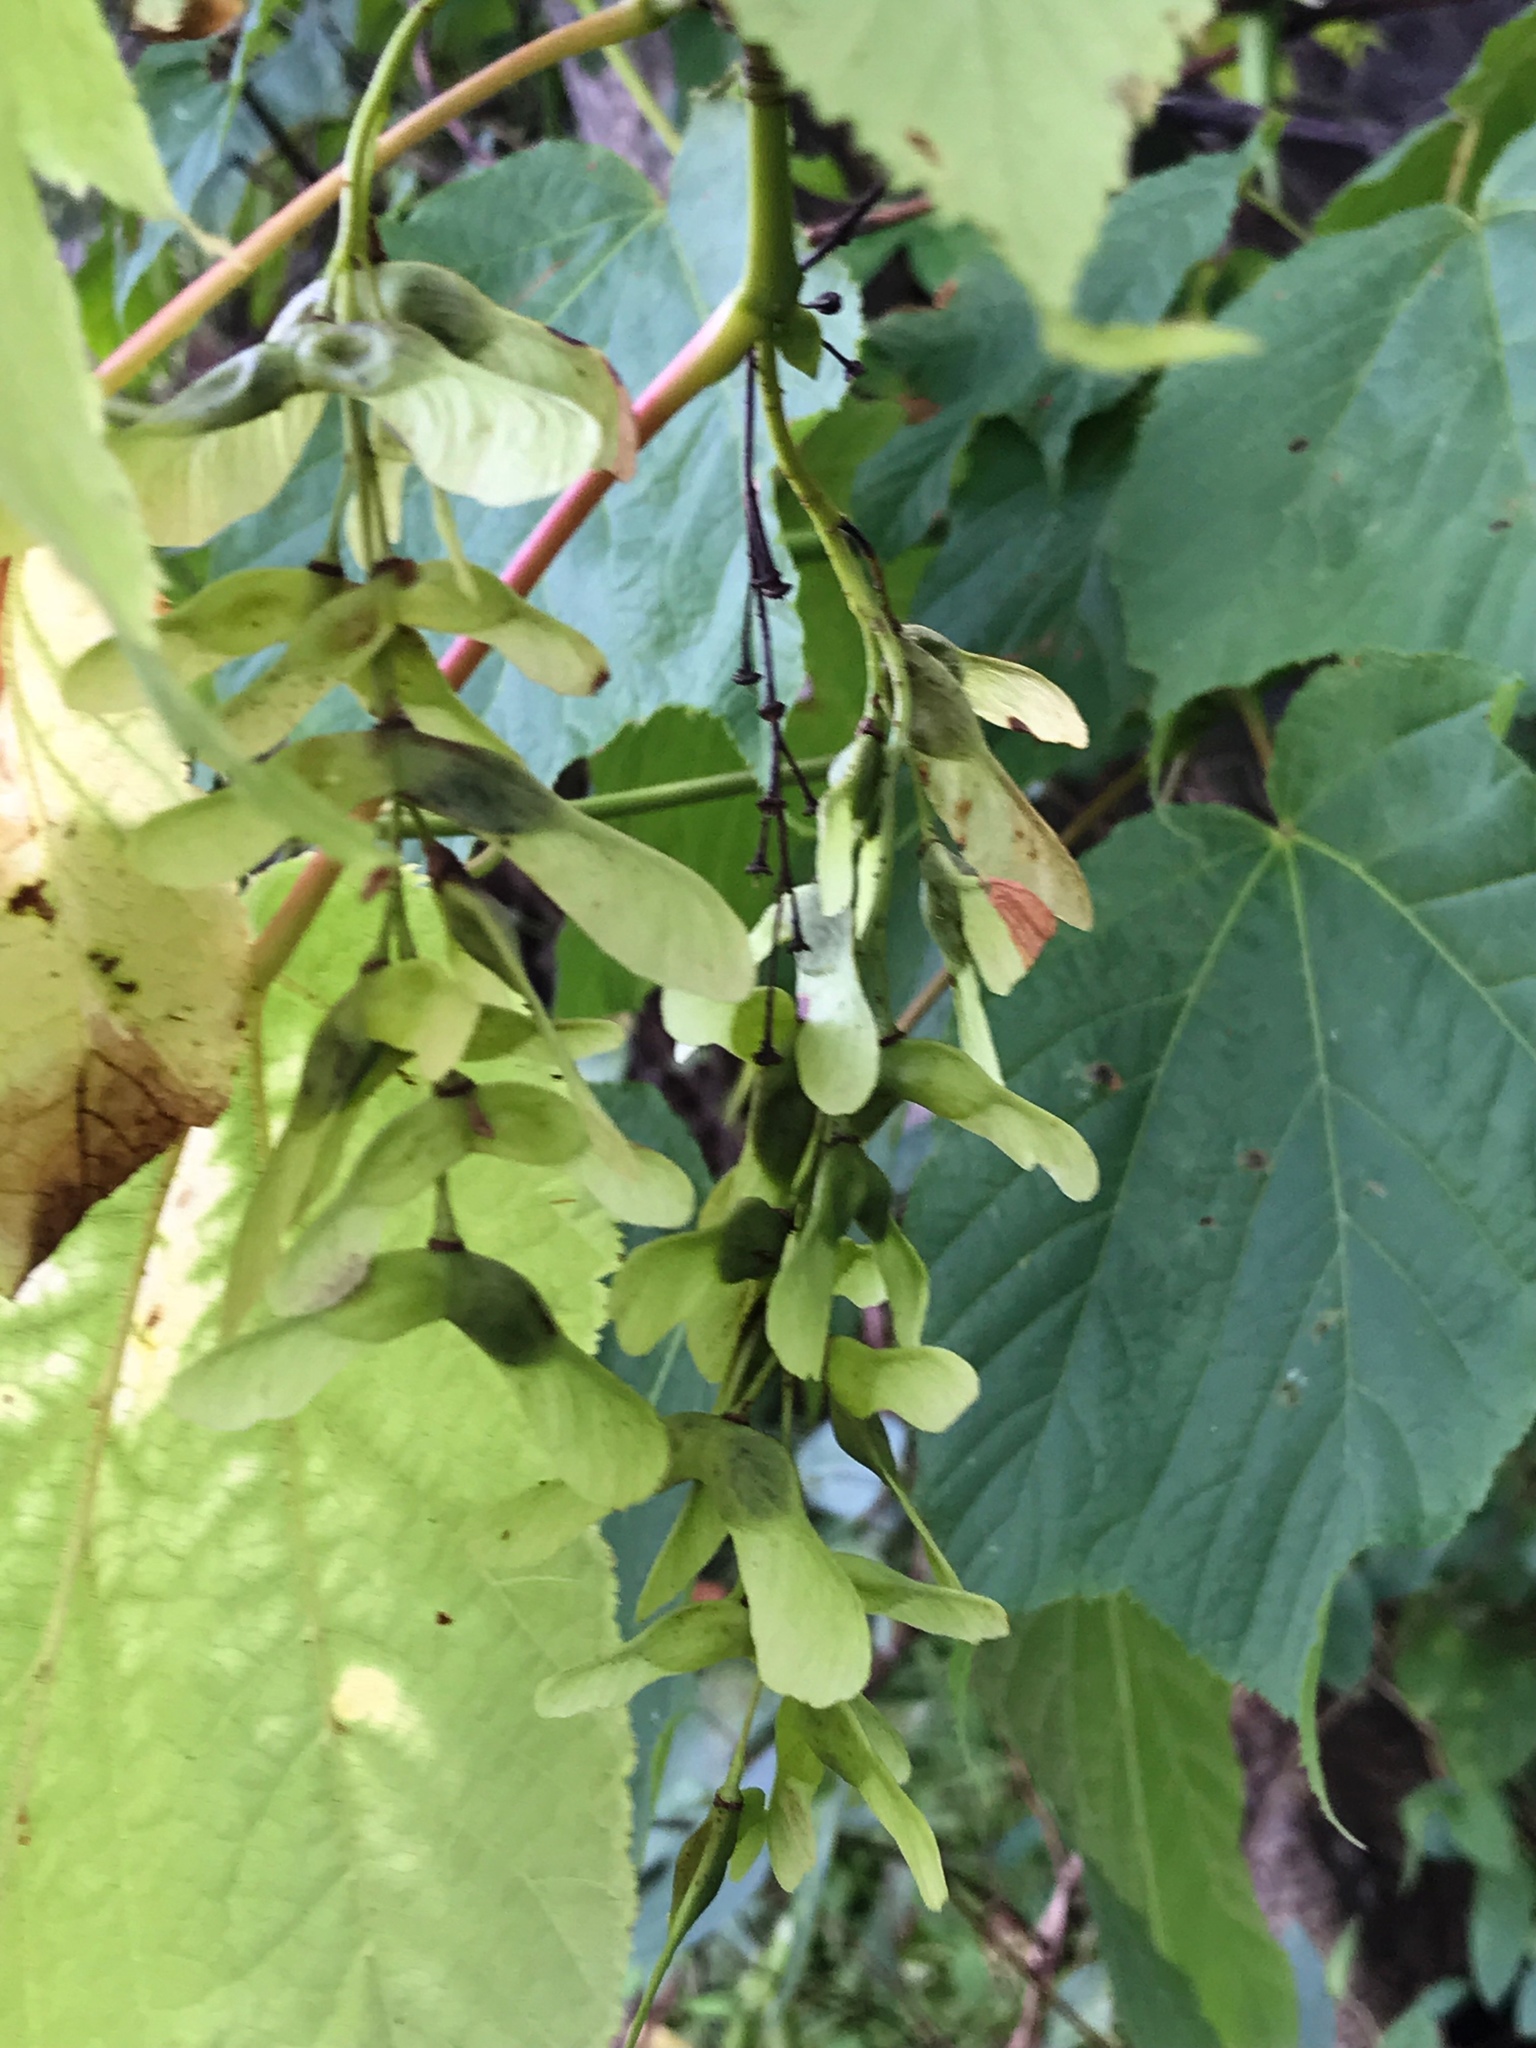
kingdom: Plantae
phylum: Tracheophyta
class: Magnoliopsida
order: Sapindales
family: Sapindaceae
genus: Acer
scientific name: Acer pensylvanicum
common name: Moosewood
